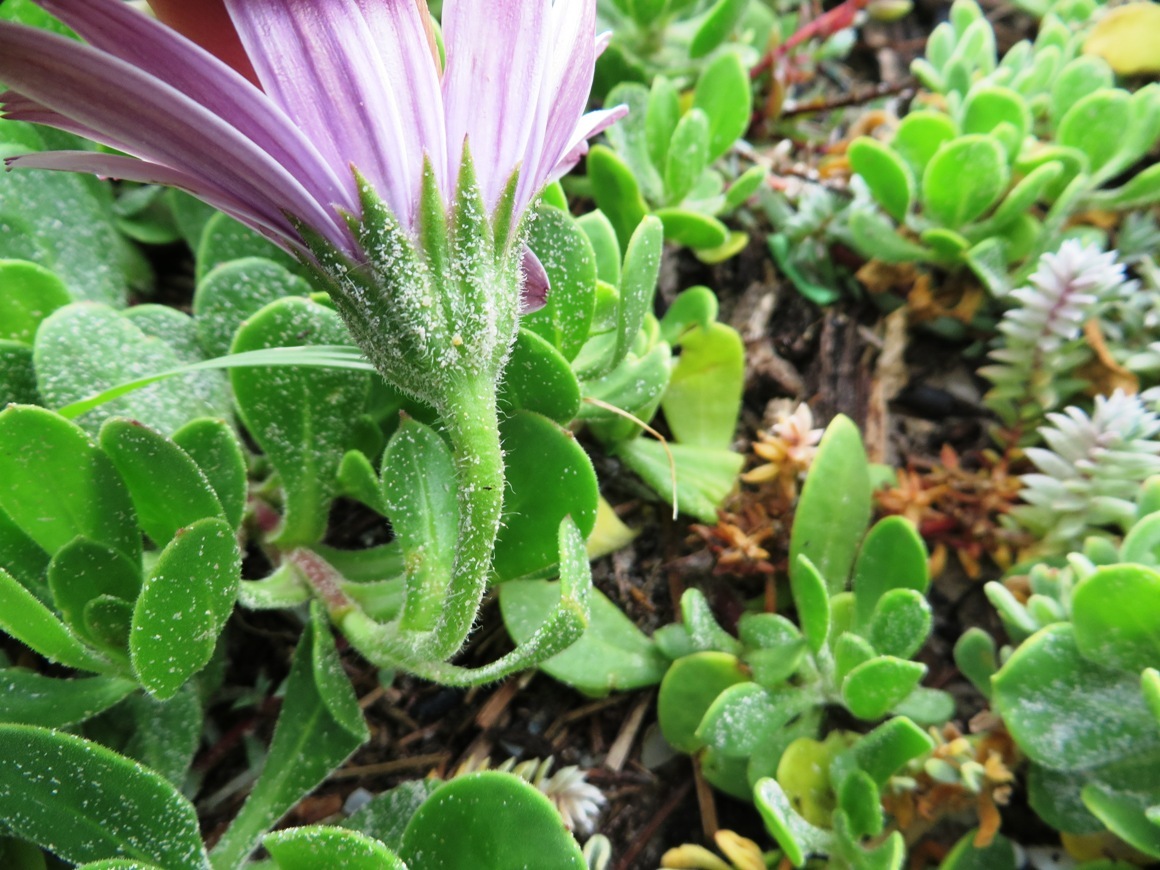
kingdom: Plantae
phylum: Tracheophyta
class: Magnoliopsida
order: Asterales
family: Asteraceae
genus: Dimorphotheca
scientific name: Dimorphotheca fruticosa
